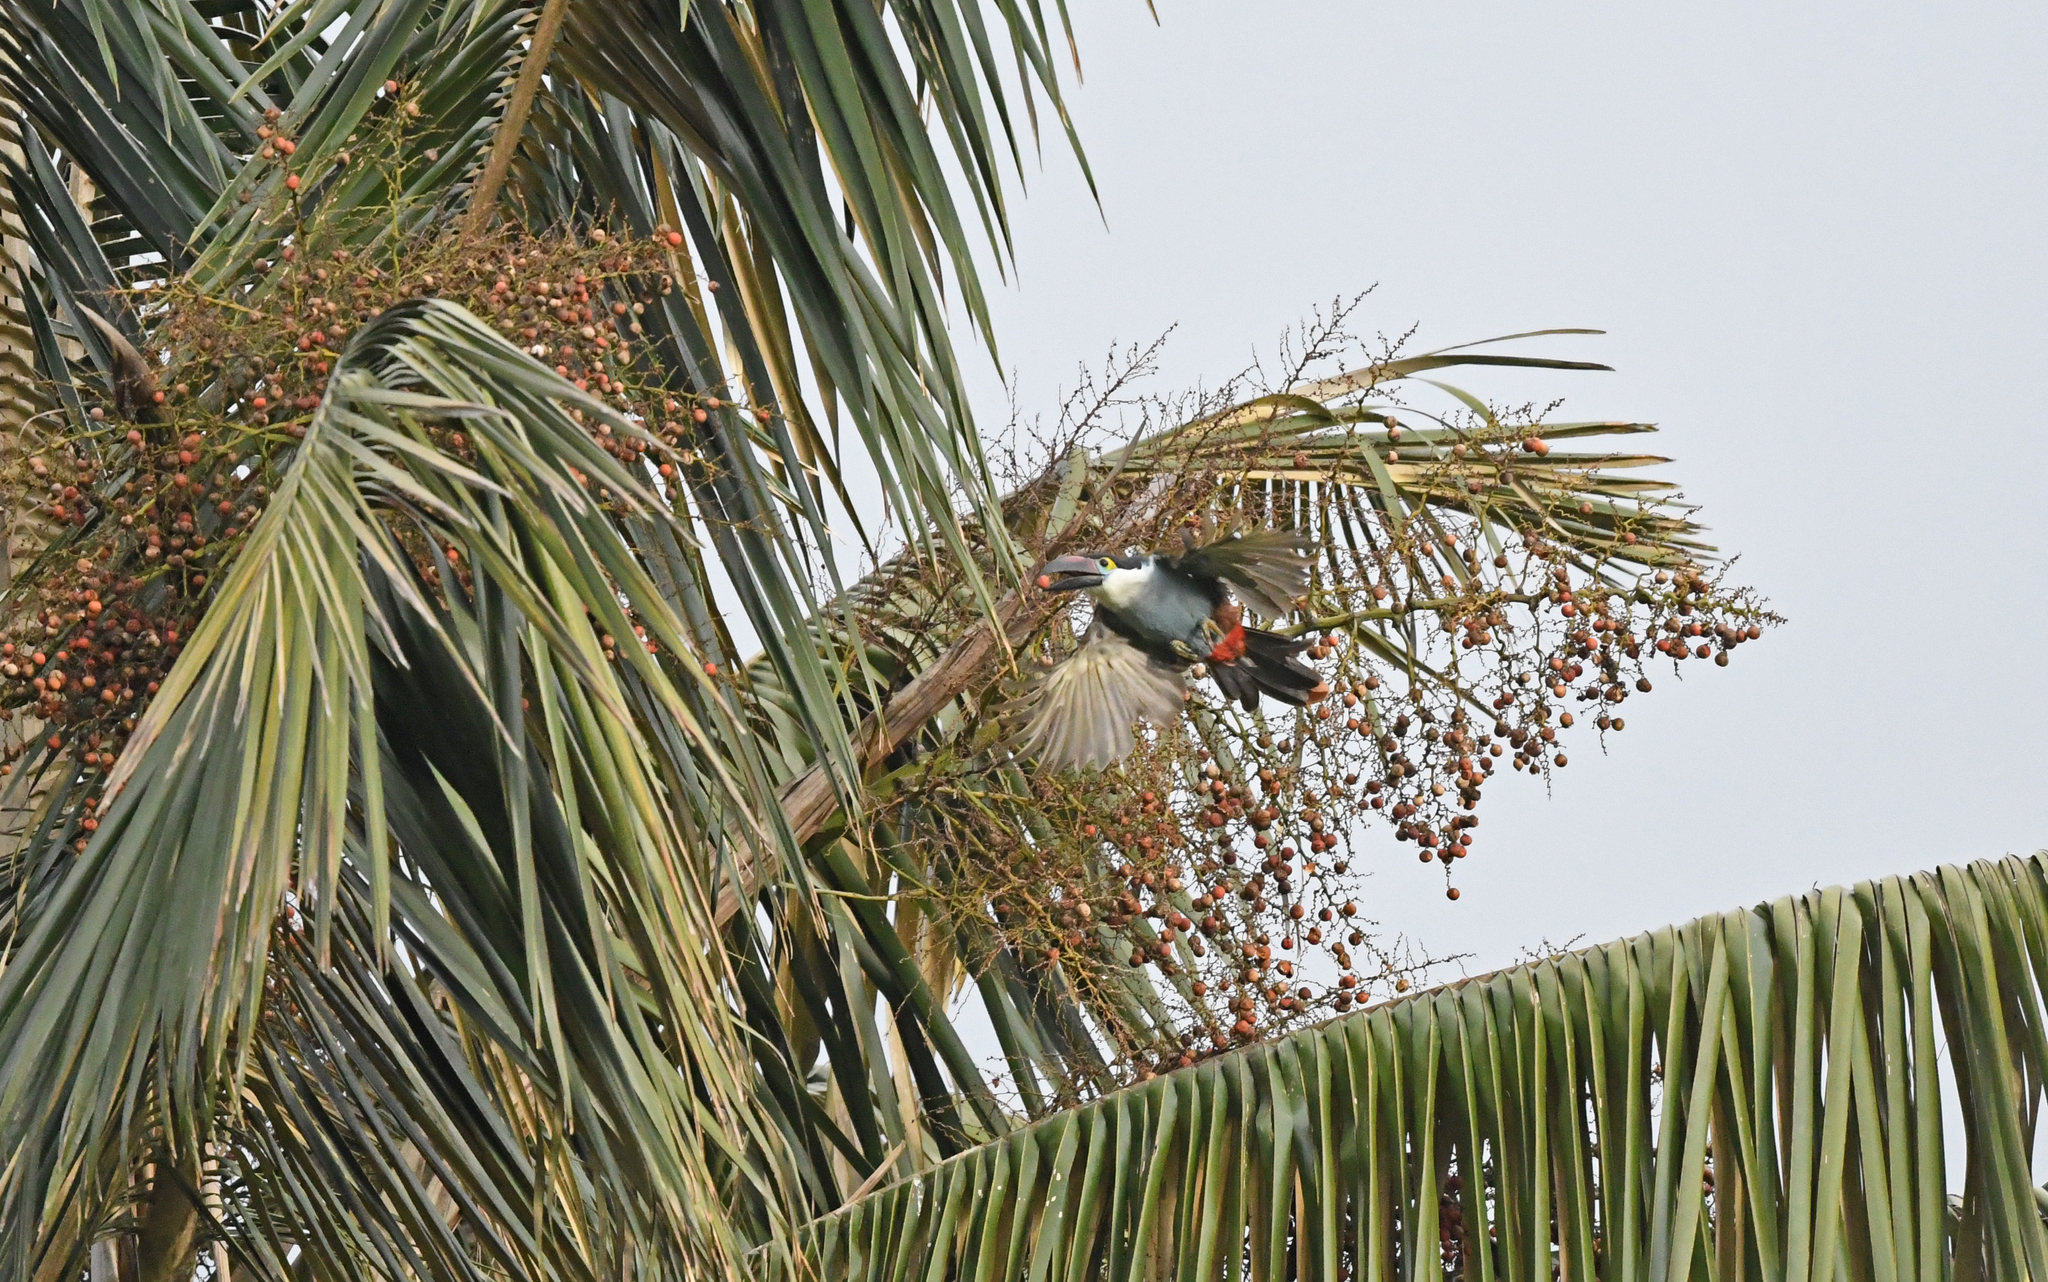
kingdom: Animalia
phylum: Chordata
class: Aves
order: Piciformes
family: Ramphastidae
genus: Andigena
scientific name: Andigena nigrirostris
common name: Black-billed mountain toucan
